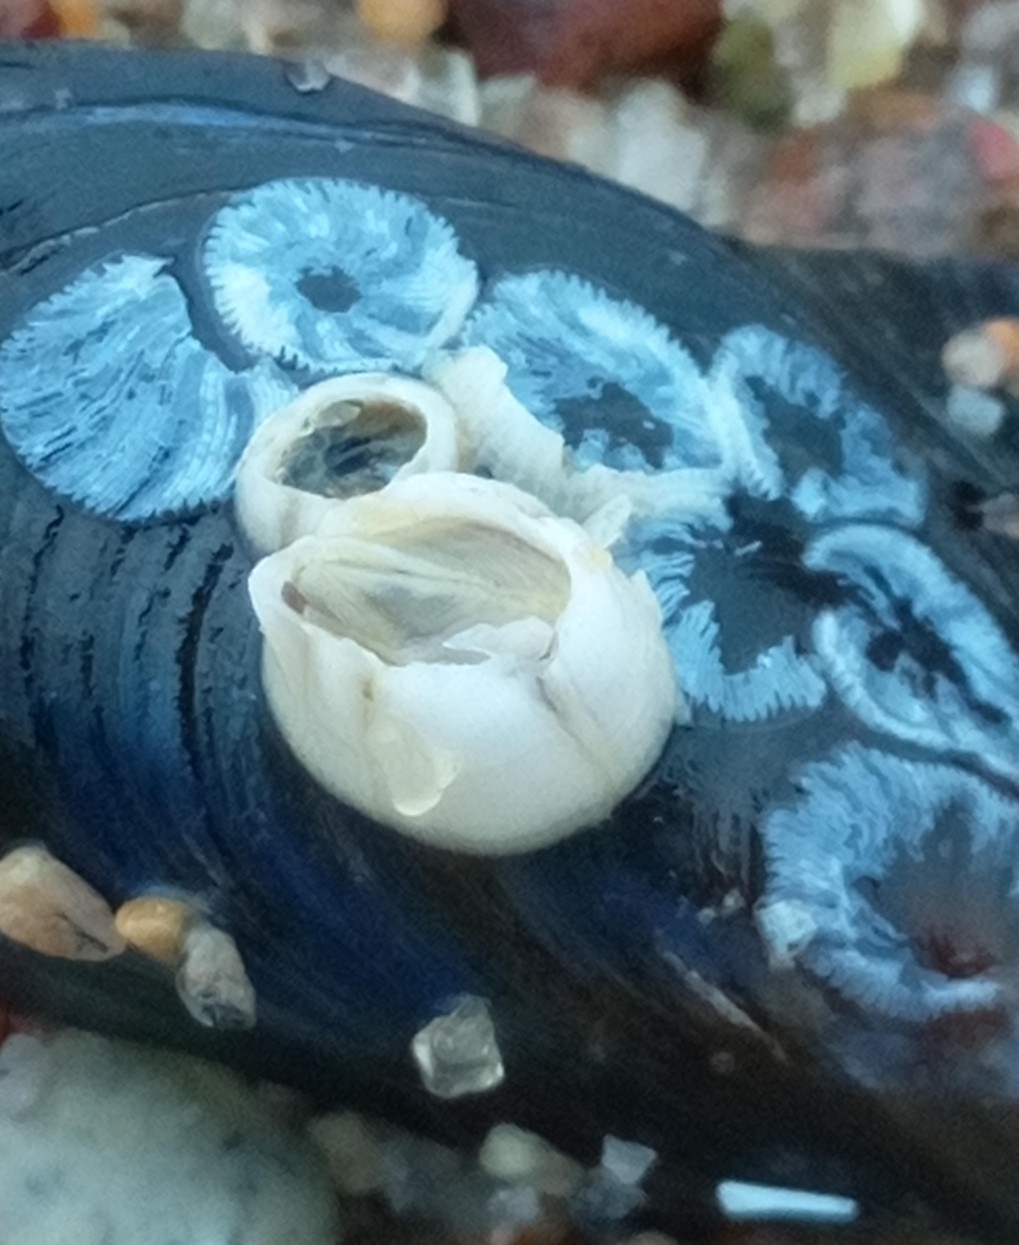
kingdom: Animalia
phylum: Arthropoda
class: Maxillopoda
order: Sessilia
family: Balanidae
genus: Amphibalanus
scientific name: Amphibalanus improvisus
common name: Bay barnacle
